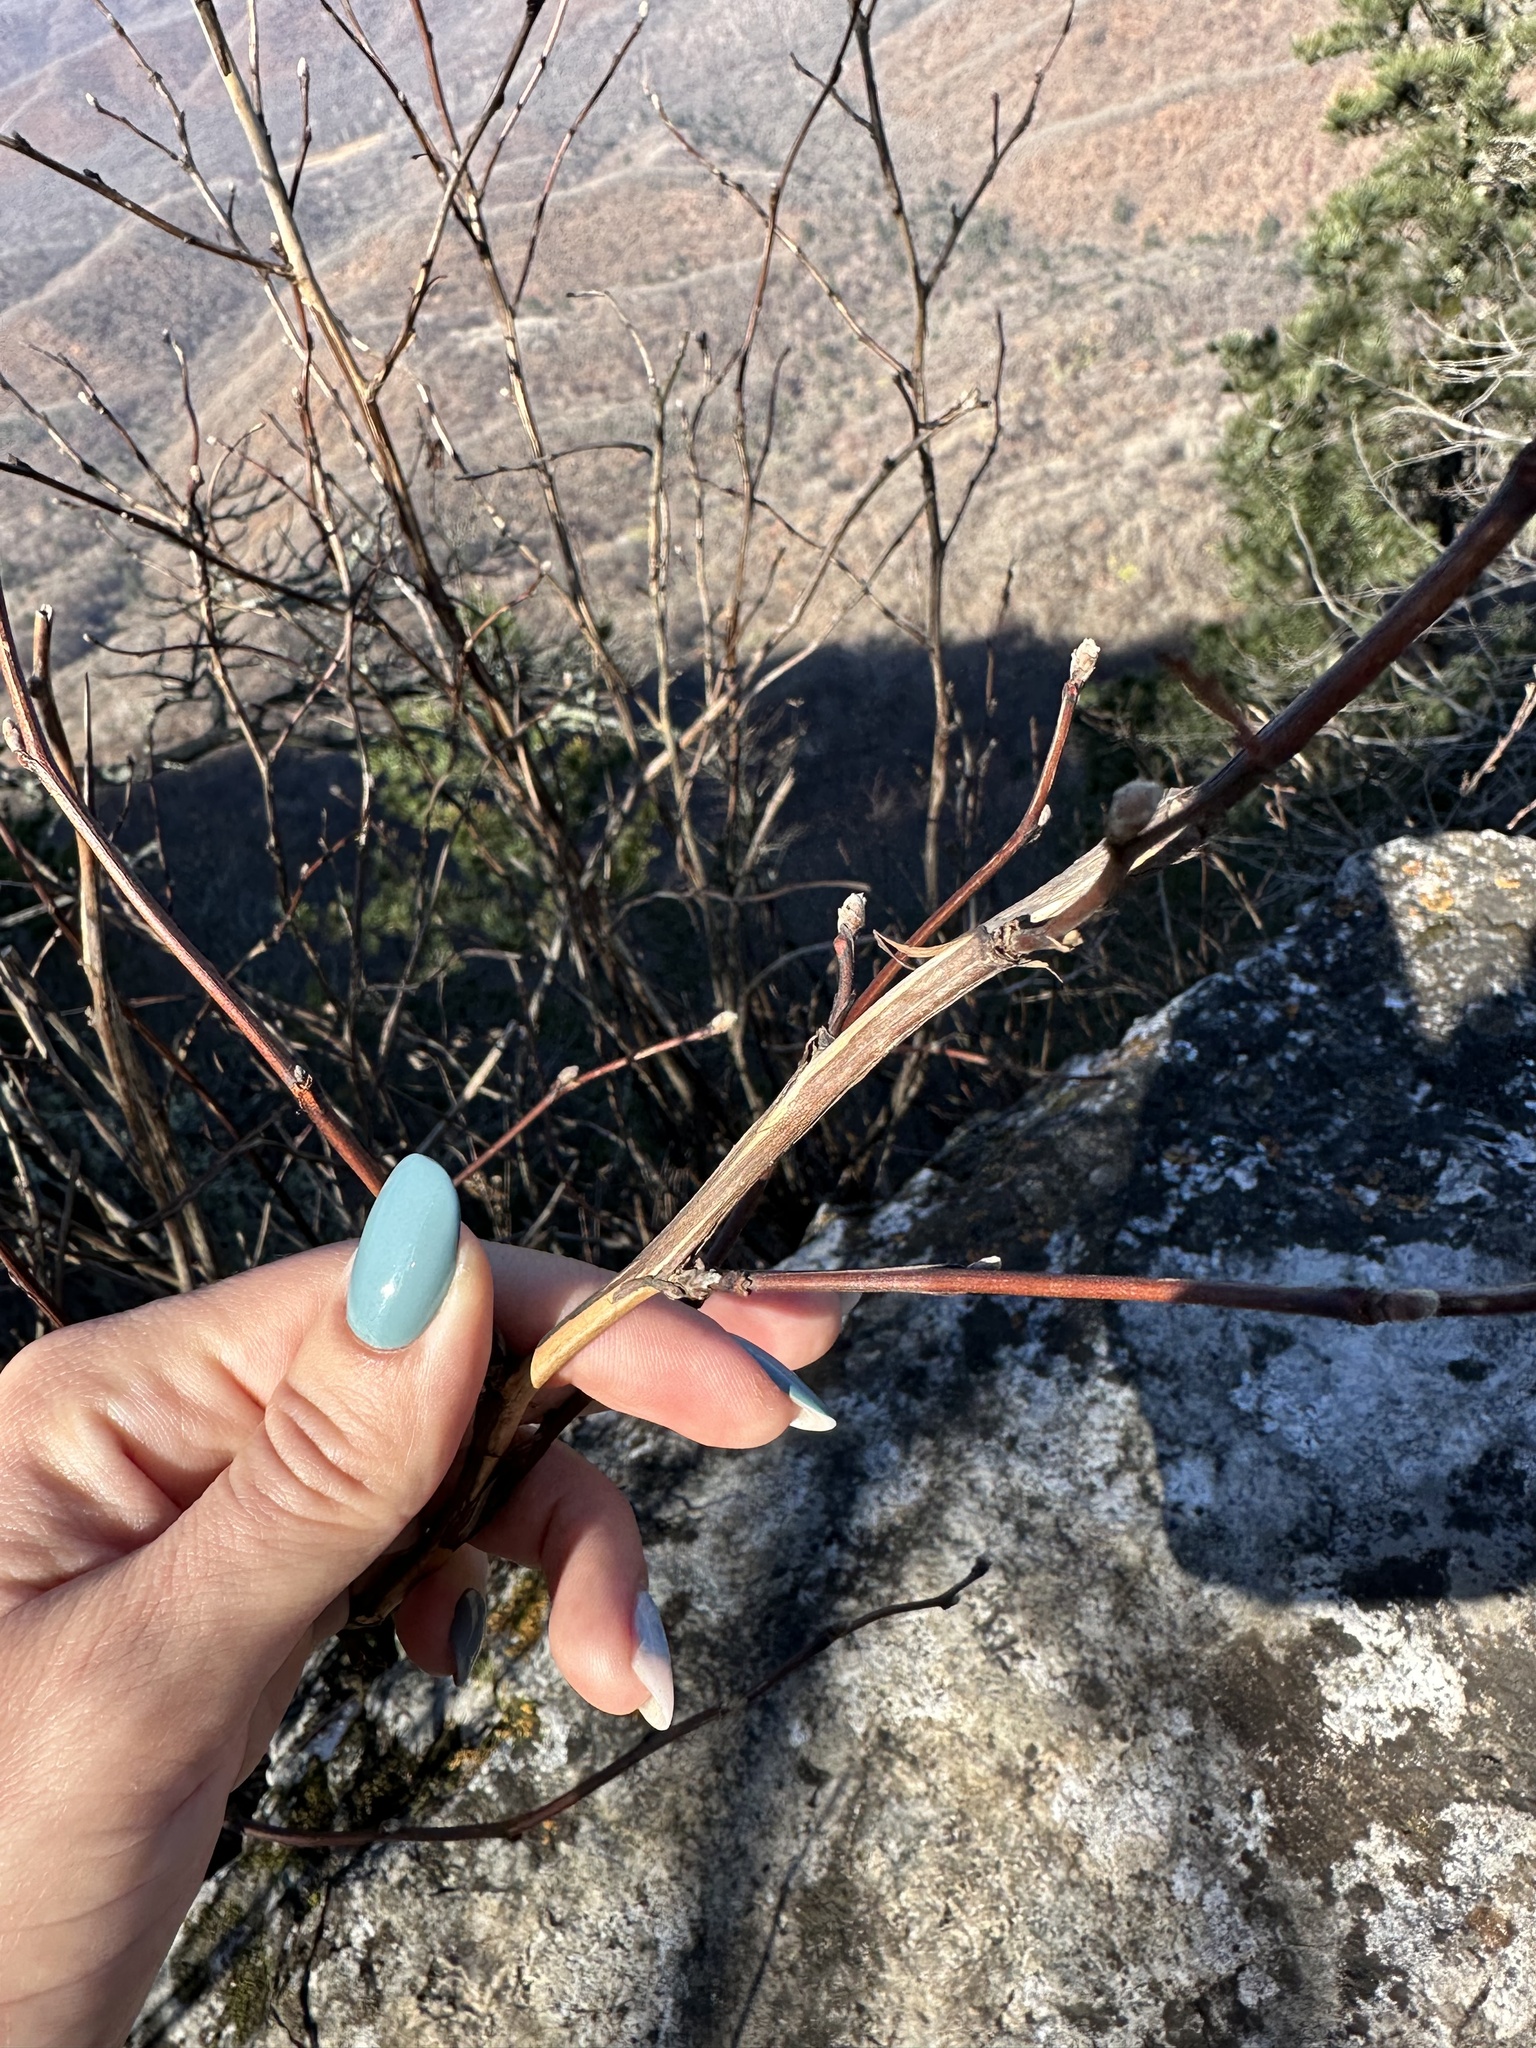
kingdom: Plantae
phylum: Tracheophyta
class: Magnoliopsida
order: Rosales
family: Rosaceae
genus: Physocarpus
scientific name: Physocarpus amurensis
